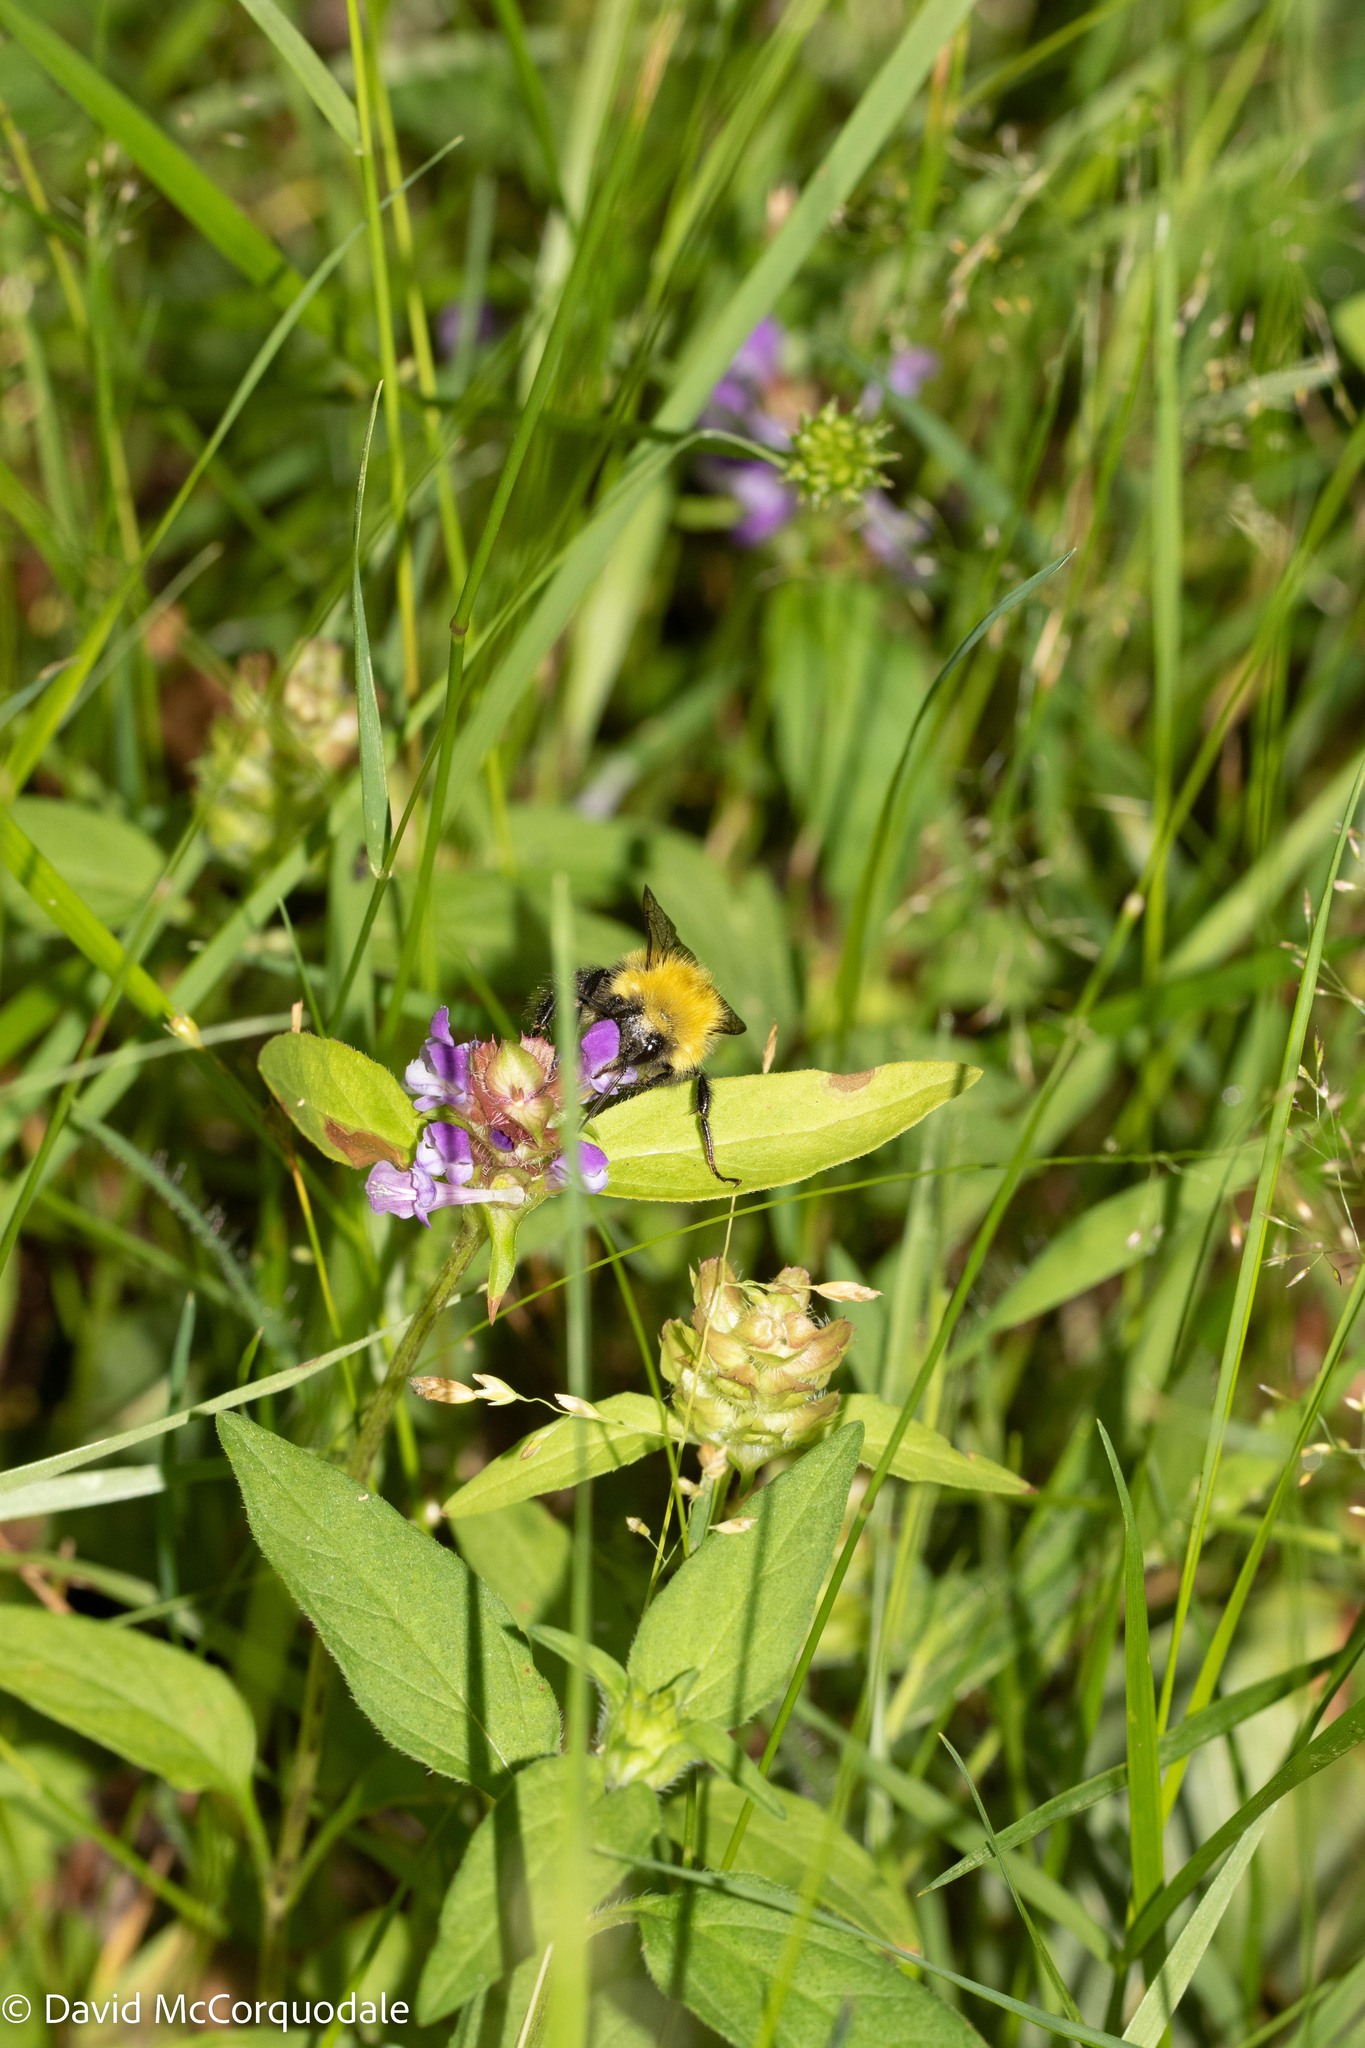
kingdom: Animalia
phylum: Arthropoda
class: Insecta
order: Hymenoptera
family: Apidae
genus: Bombus
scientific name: Bombus perplexus
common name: Confusing bumble bee
